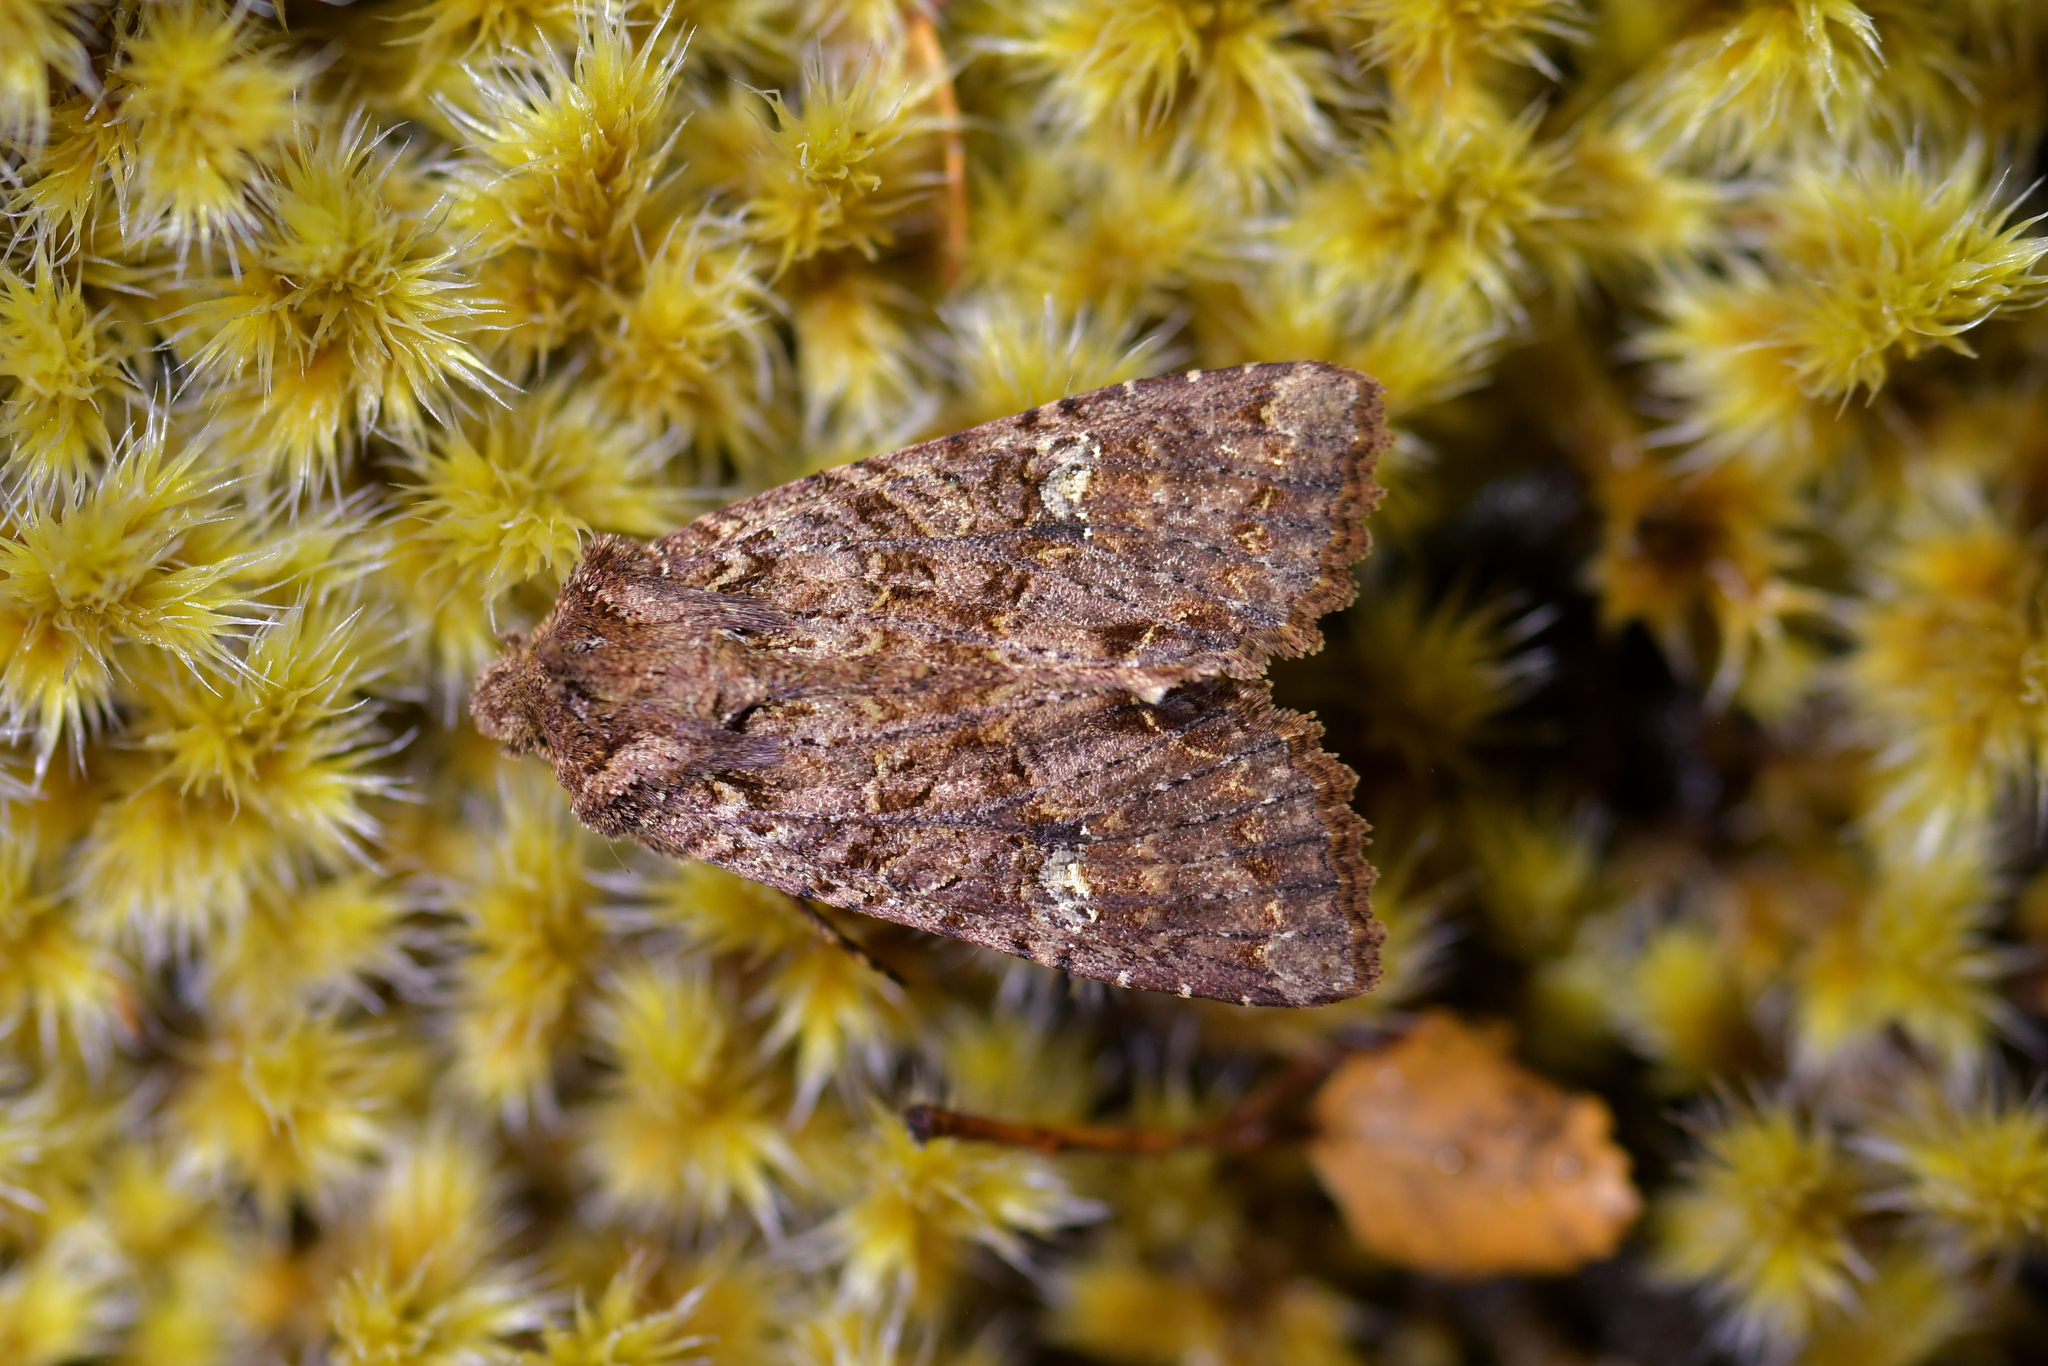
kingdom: Animalia
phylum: Arthropoda
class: Insecta
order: Lepidoptera
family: Noctuidae
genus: Meterana
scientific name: Meterana
